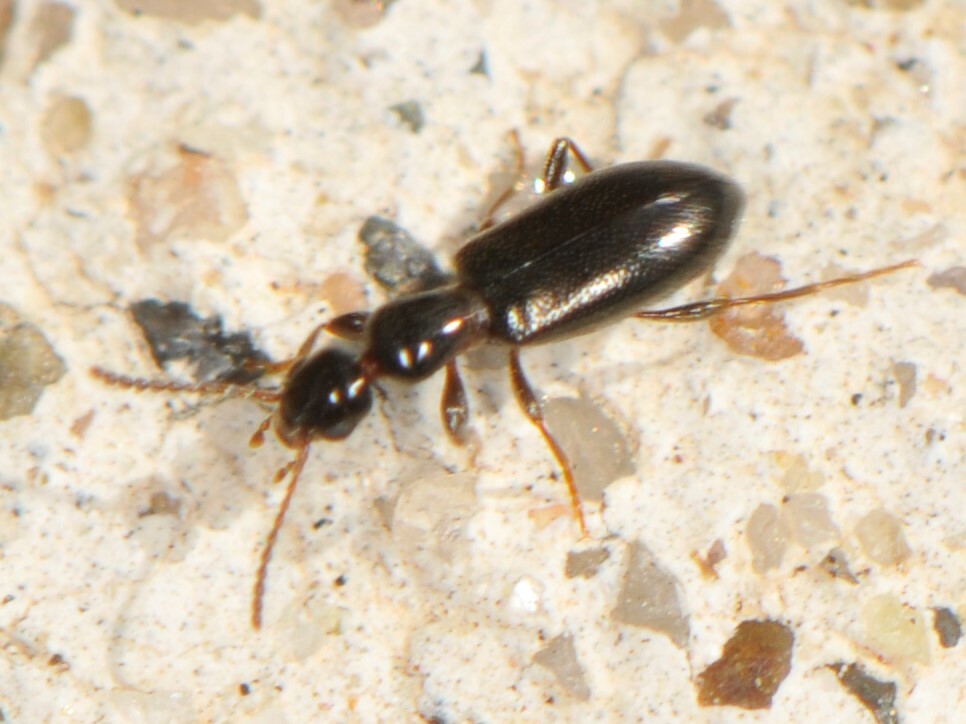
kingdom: Animalia
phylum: Arthropoda
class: Insecta
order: Coleoptera
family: Anthicidae
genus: Vacusus
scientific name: Vacusus confinis
